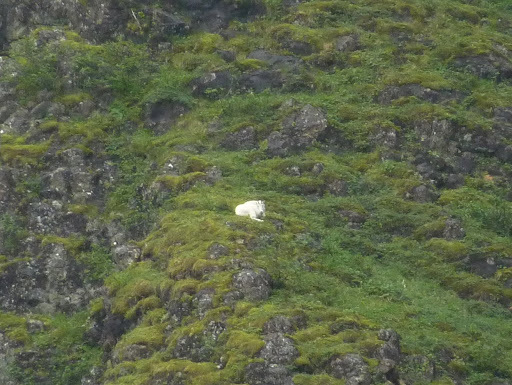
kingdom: Animalia
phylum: Chordata
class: Mammalia
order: Artiodactyla
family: Bovidae
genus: Oreamnos
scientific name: Oreamnos americanus
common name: Mountain goat
